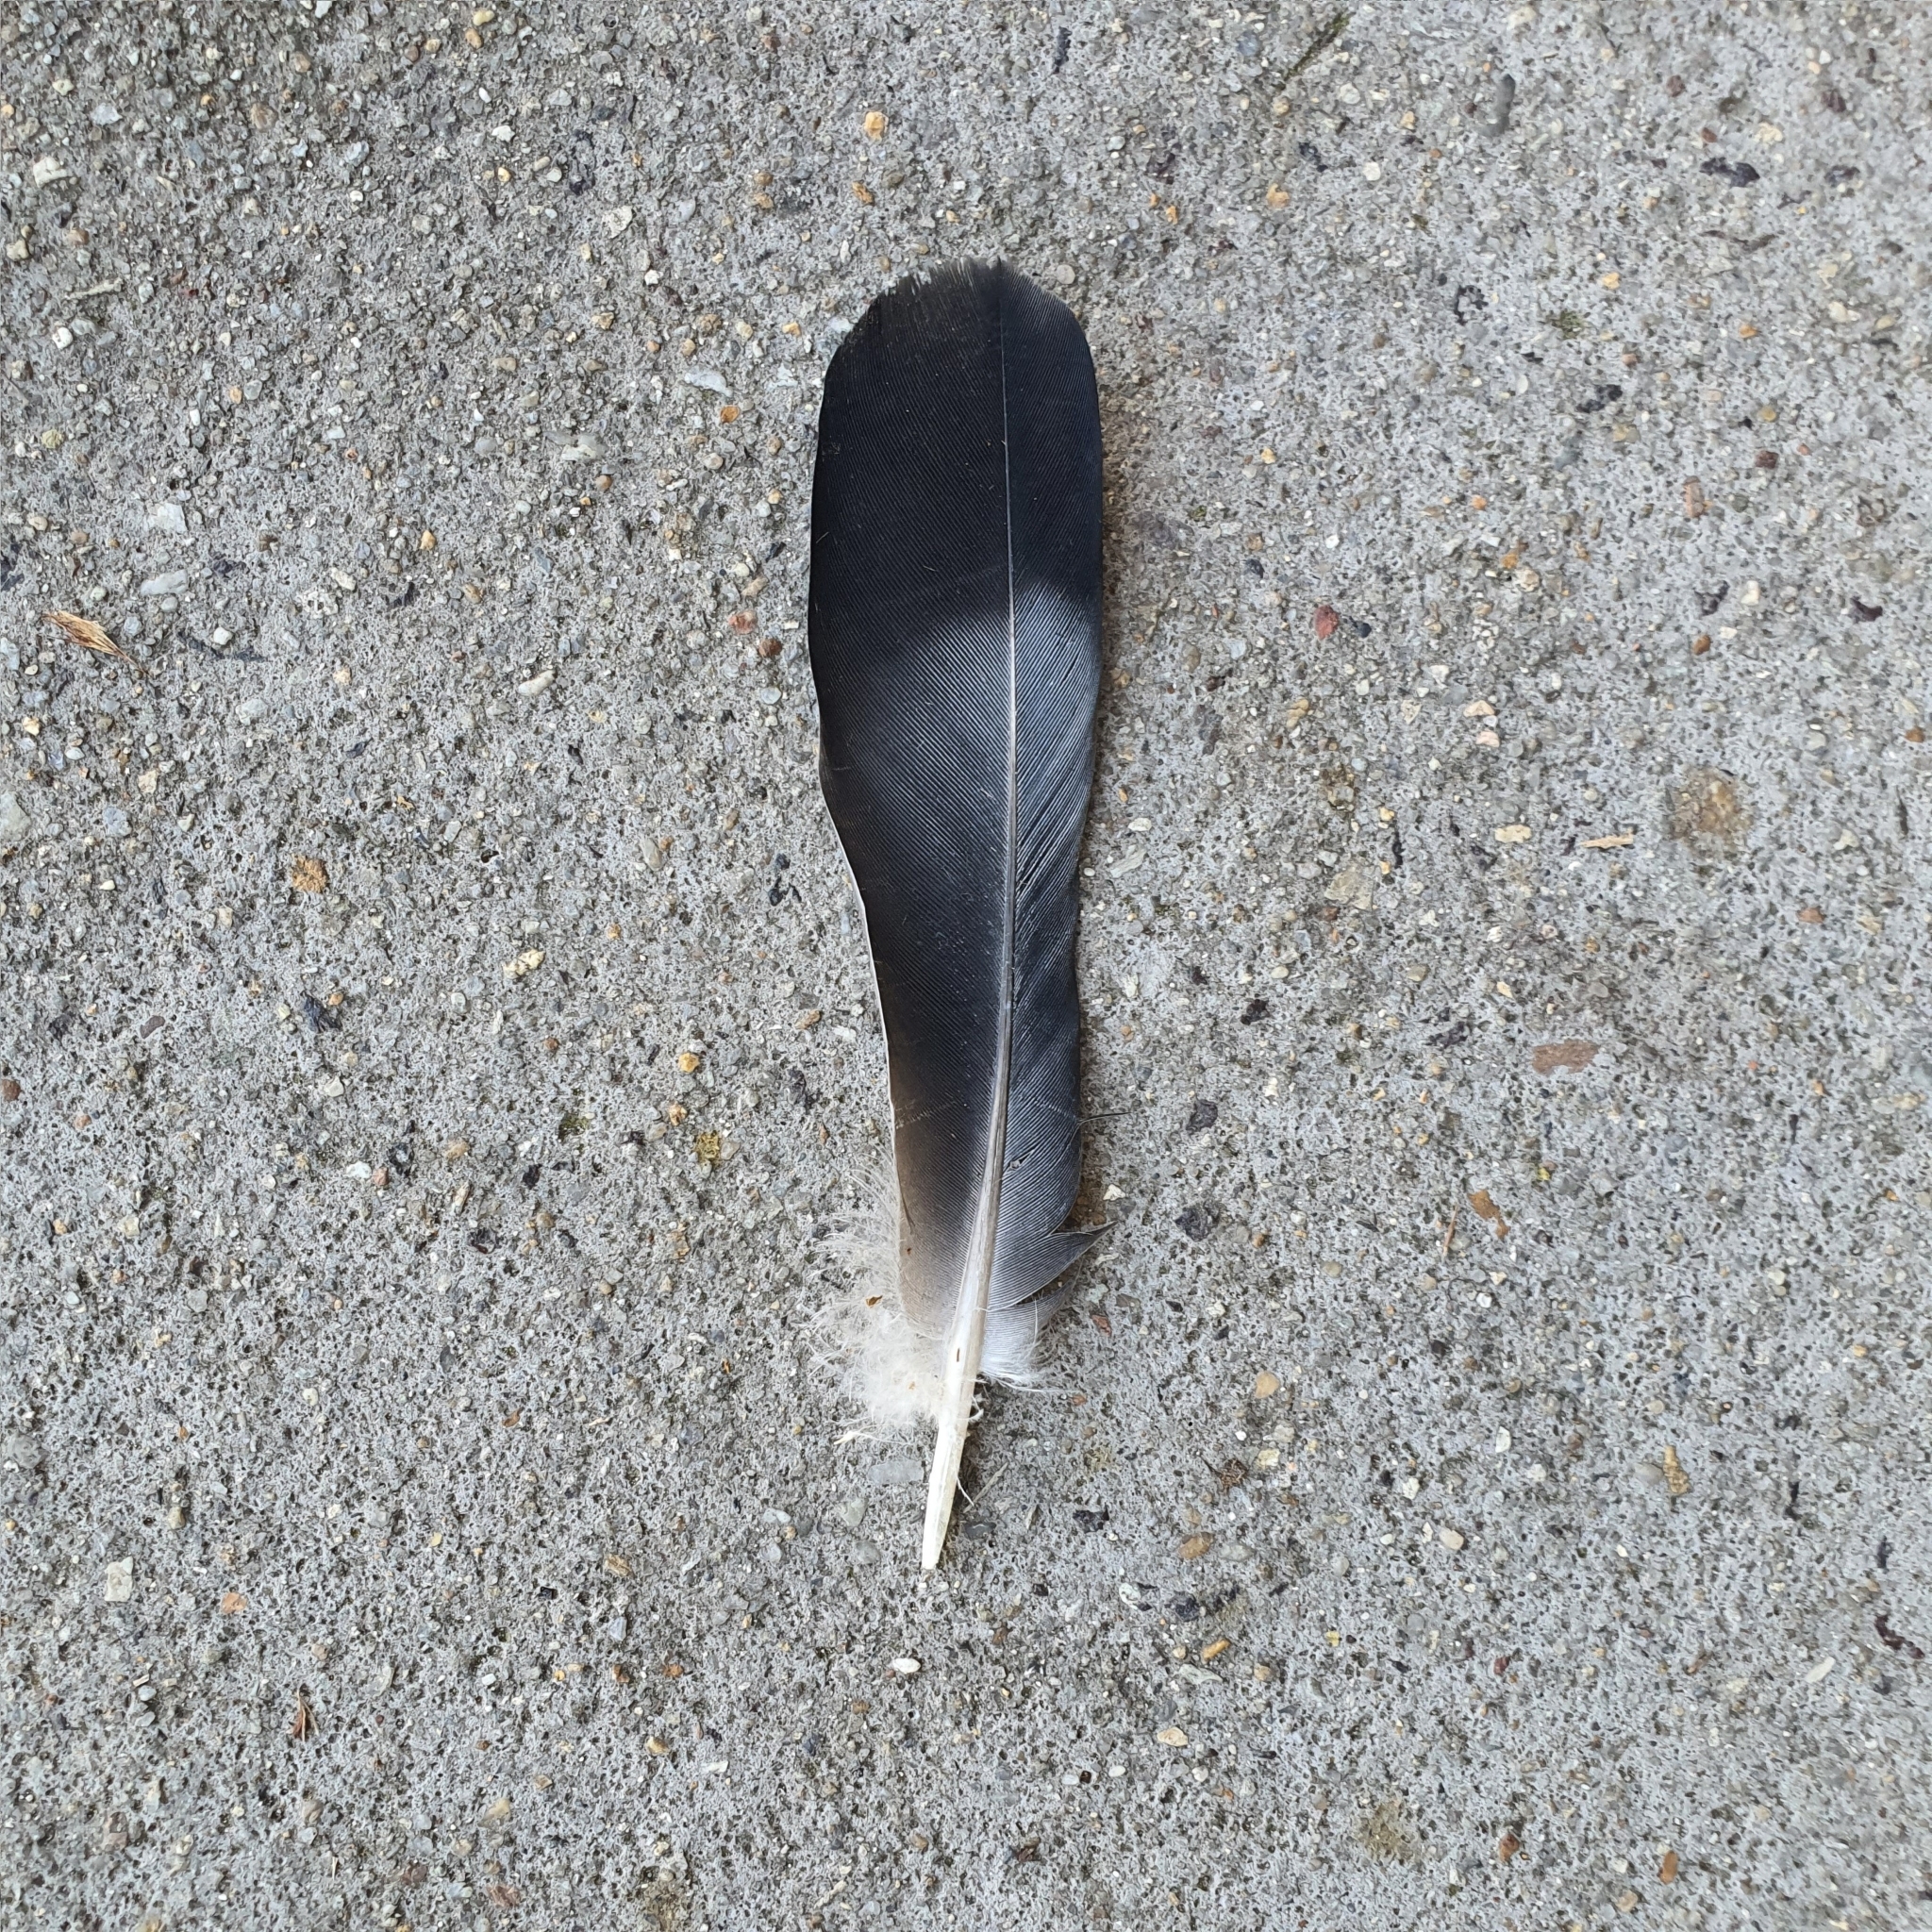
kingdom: Animalia
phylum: Chordata
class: Aves
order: Columbiformes
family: Columbidae
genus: Columba
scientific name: Columba livia
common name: Rock pigeon
